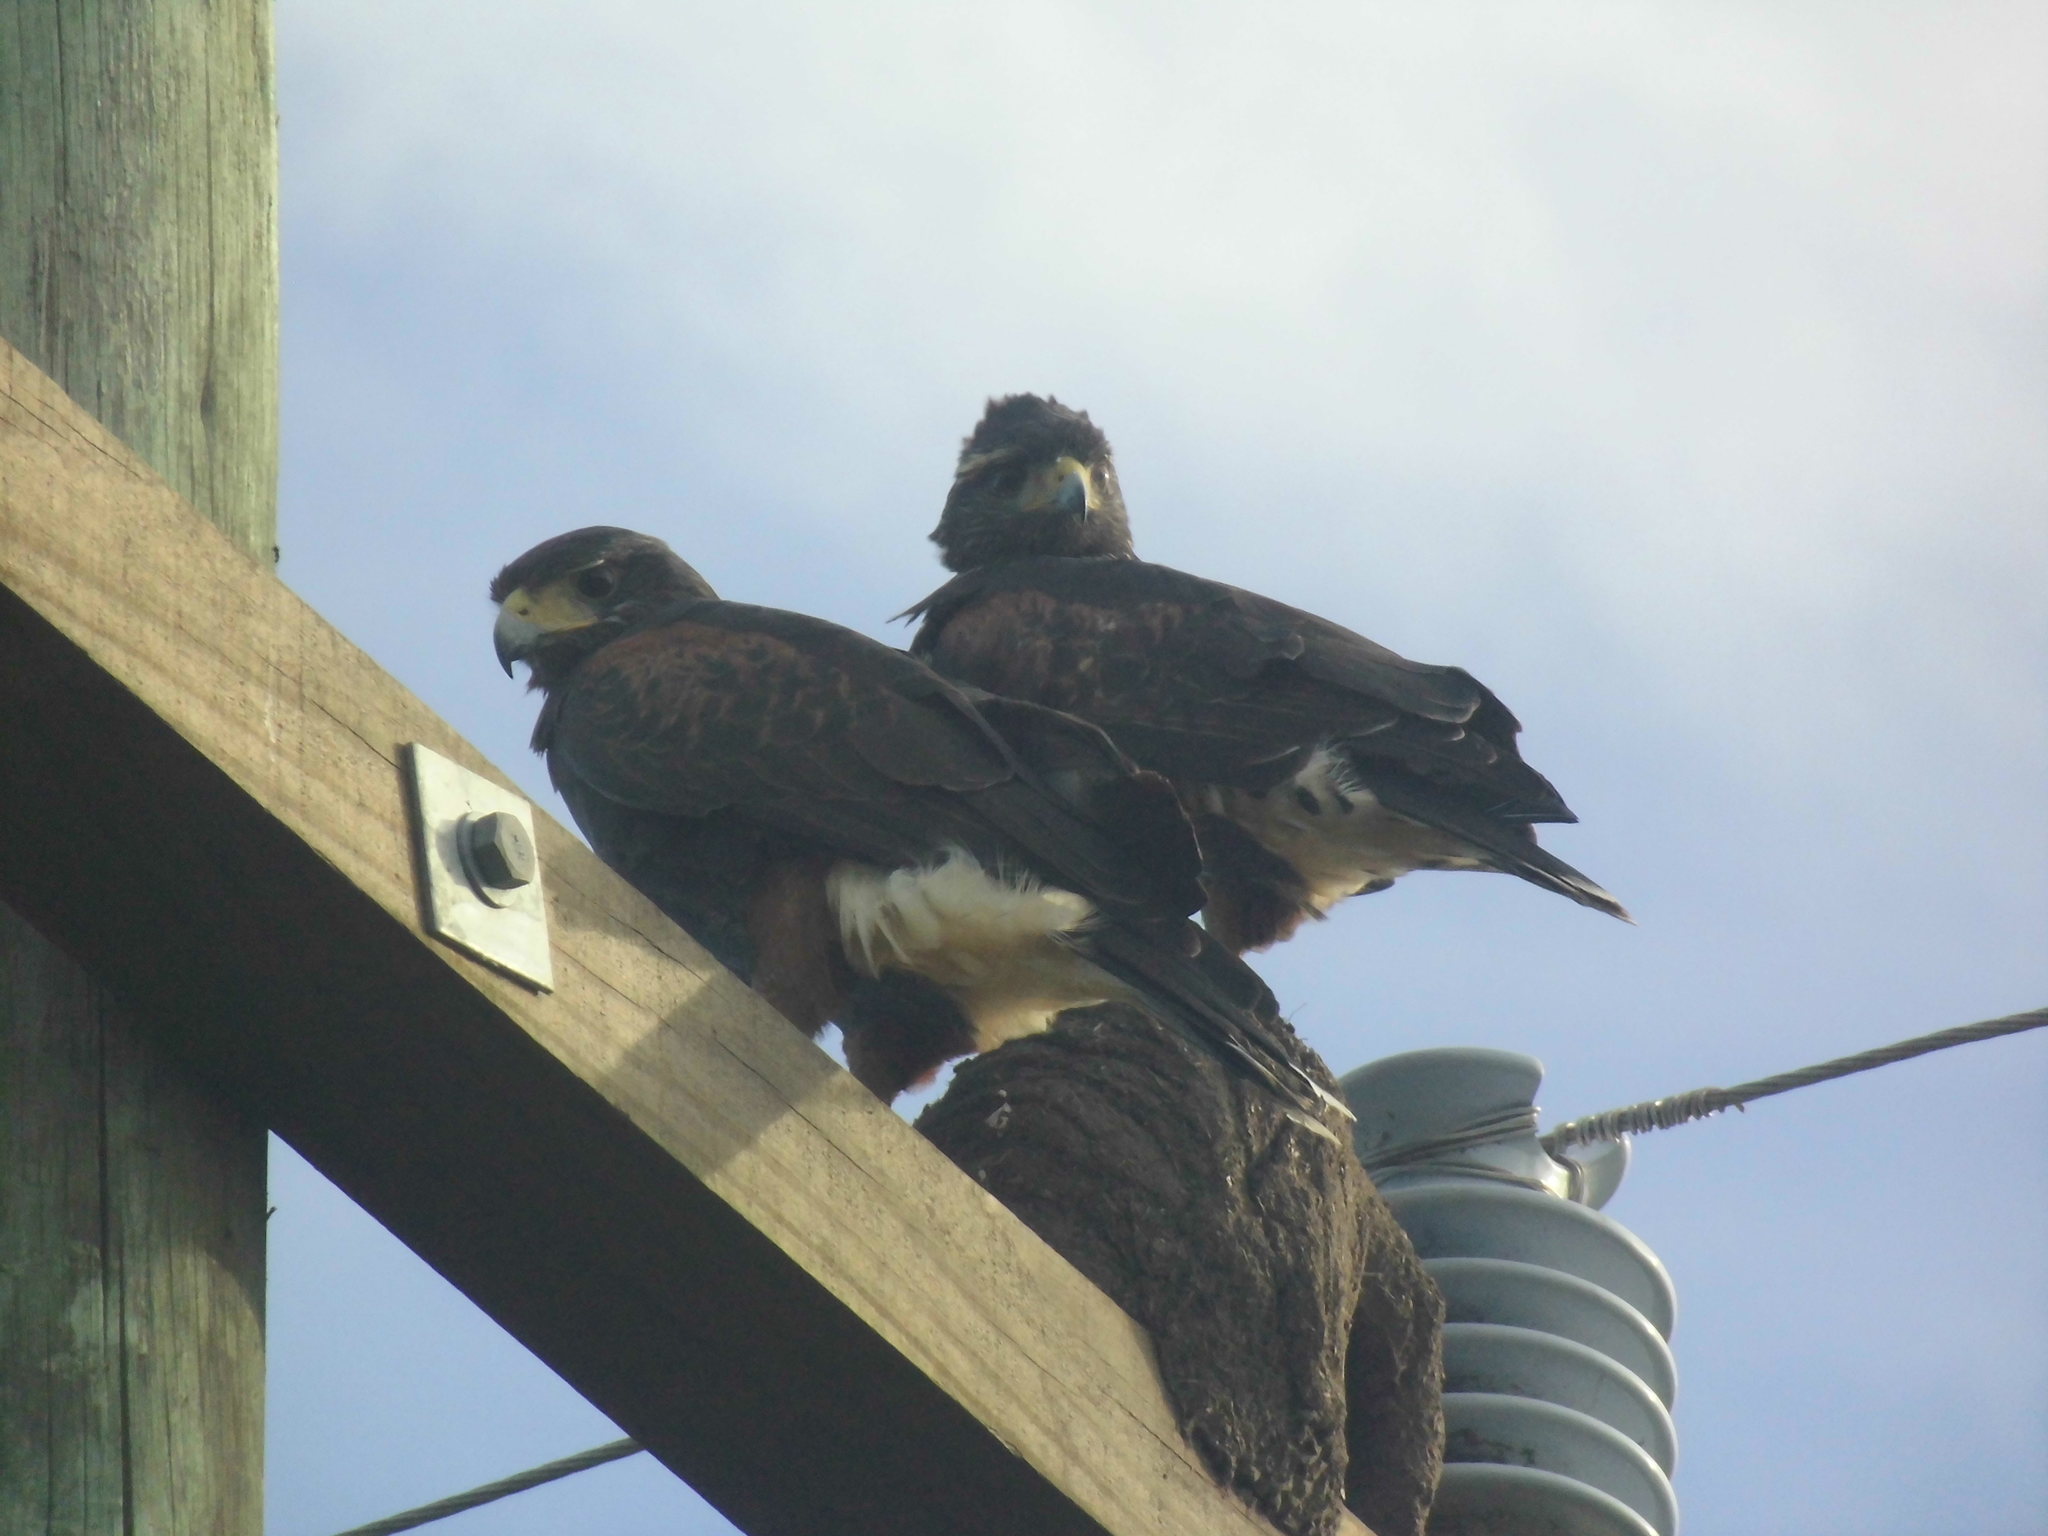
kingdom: Animalia
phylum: Chordata
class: Aves
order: Accipitriformes
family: Accipitridae
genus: Parabuteo
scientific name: Parabuteo unicinctus
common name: Harris's hawk
